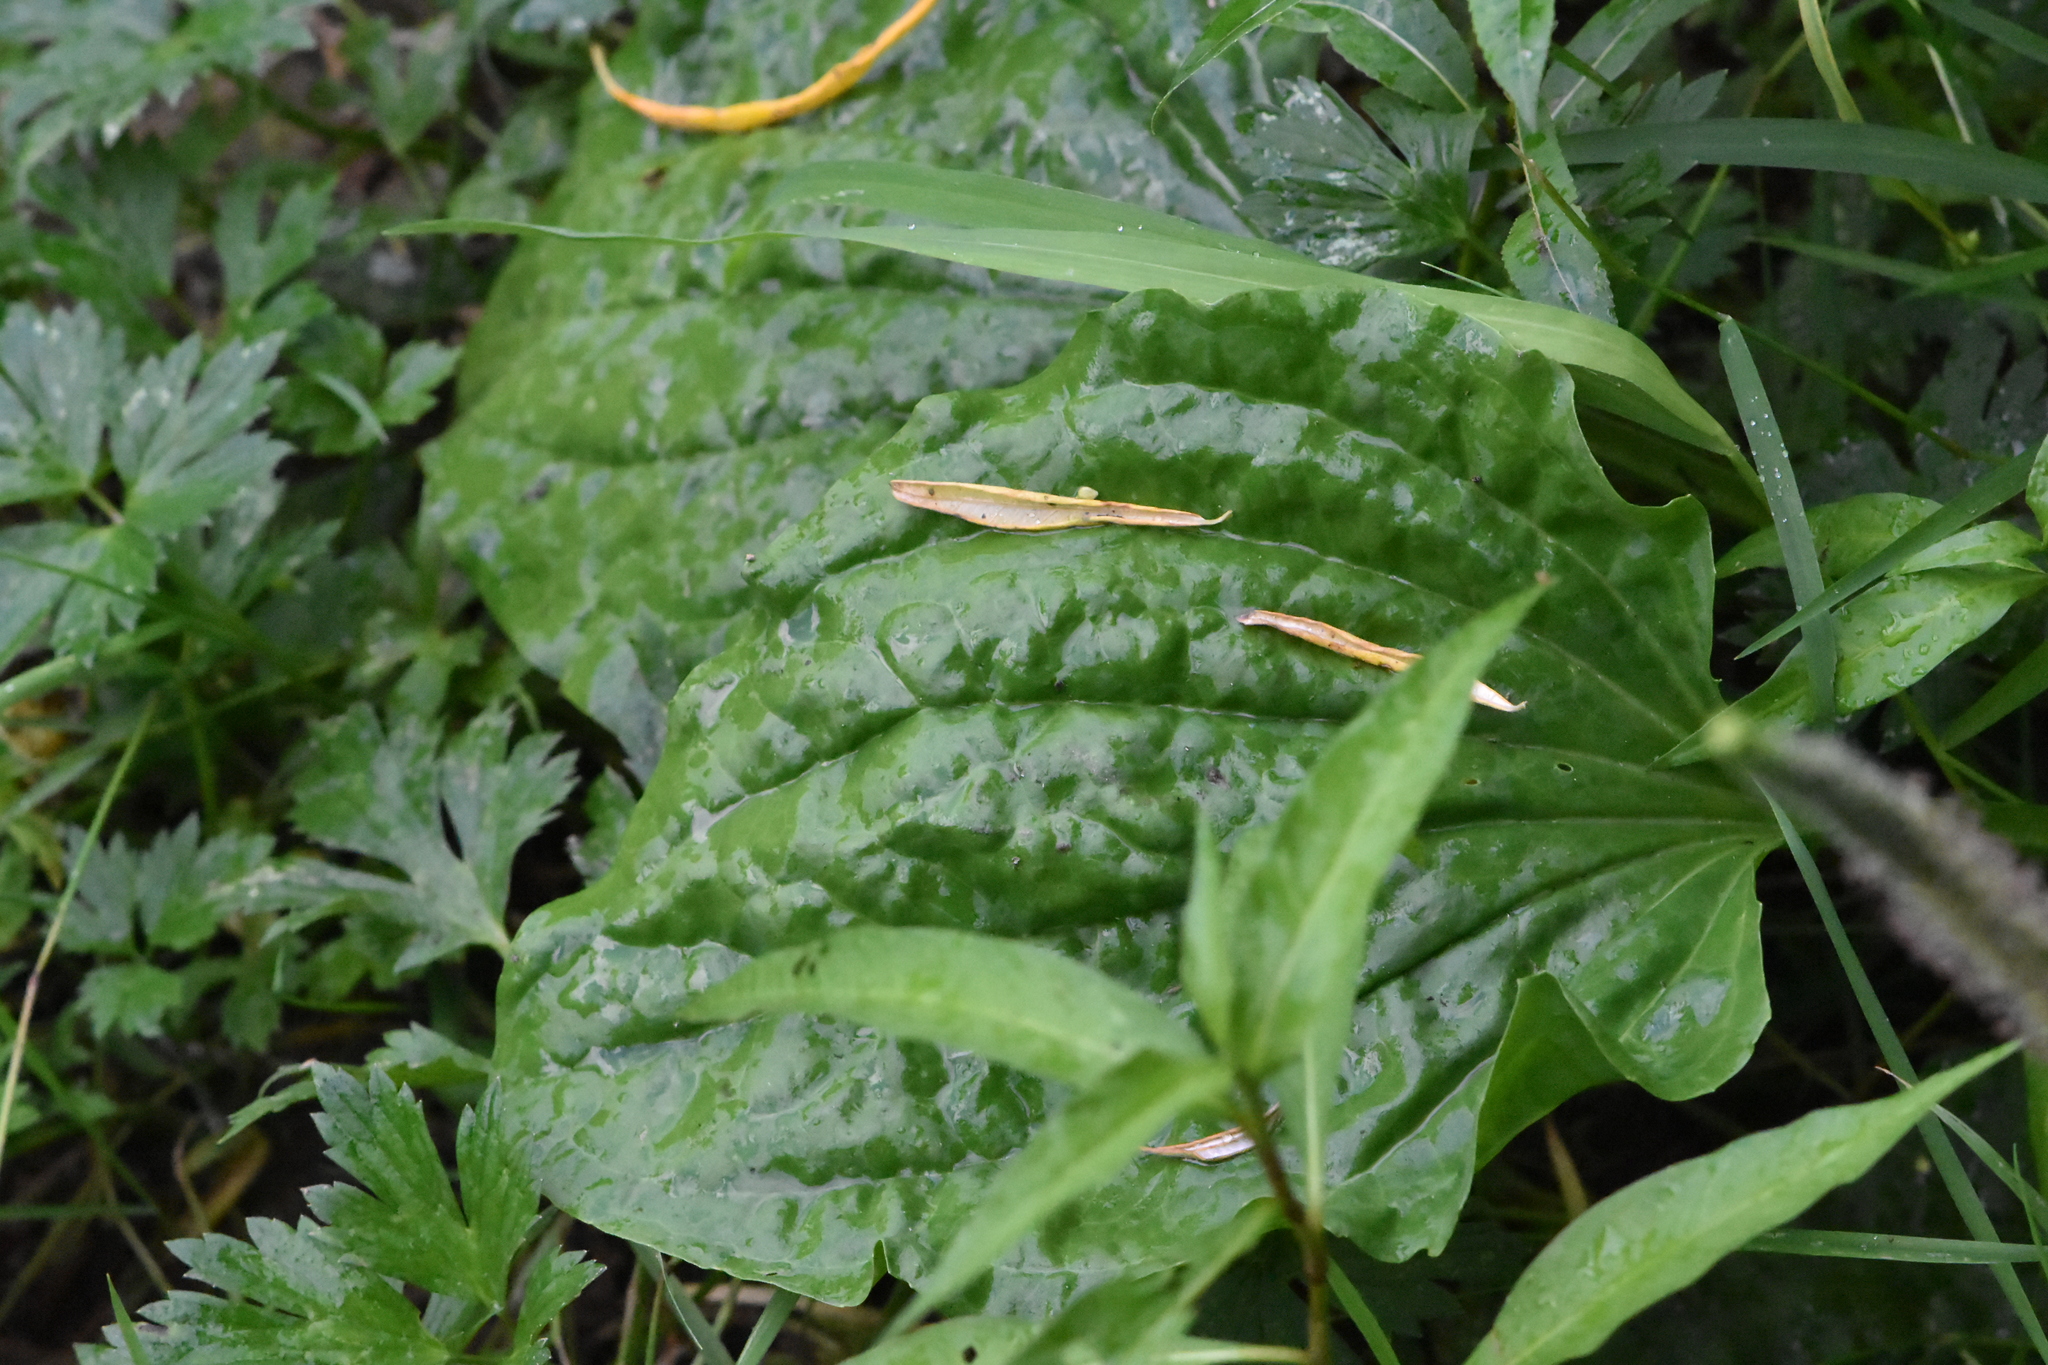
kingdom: Plantae
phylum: Tracheophyta
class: Magnoliopsida
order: Lamiales
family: Plantaginaceae
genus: Plantago
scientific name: Plantago major
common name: Common plantain
